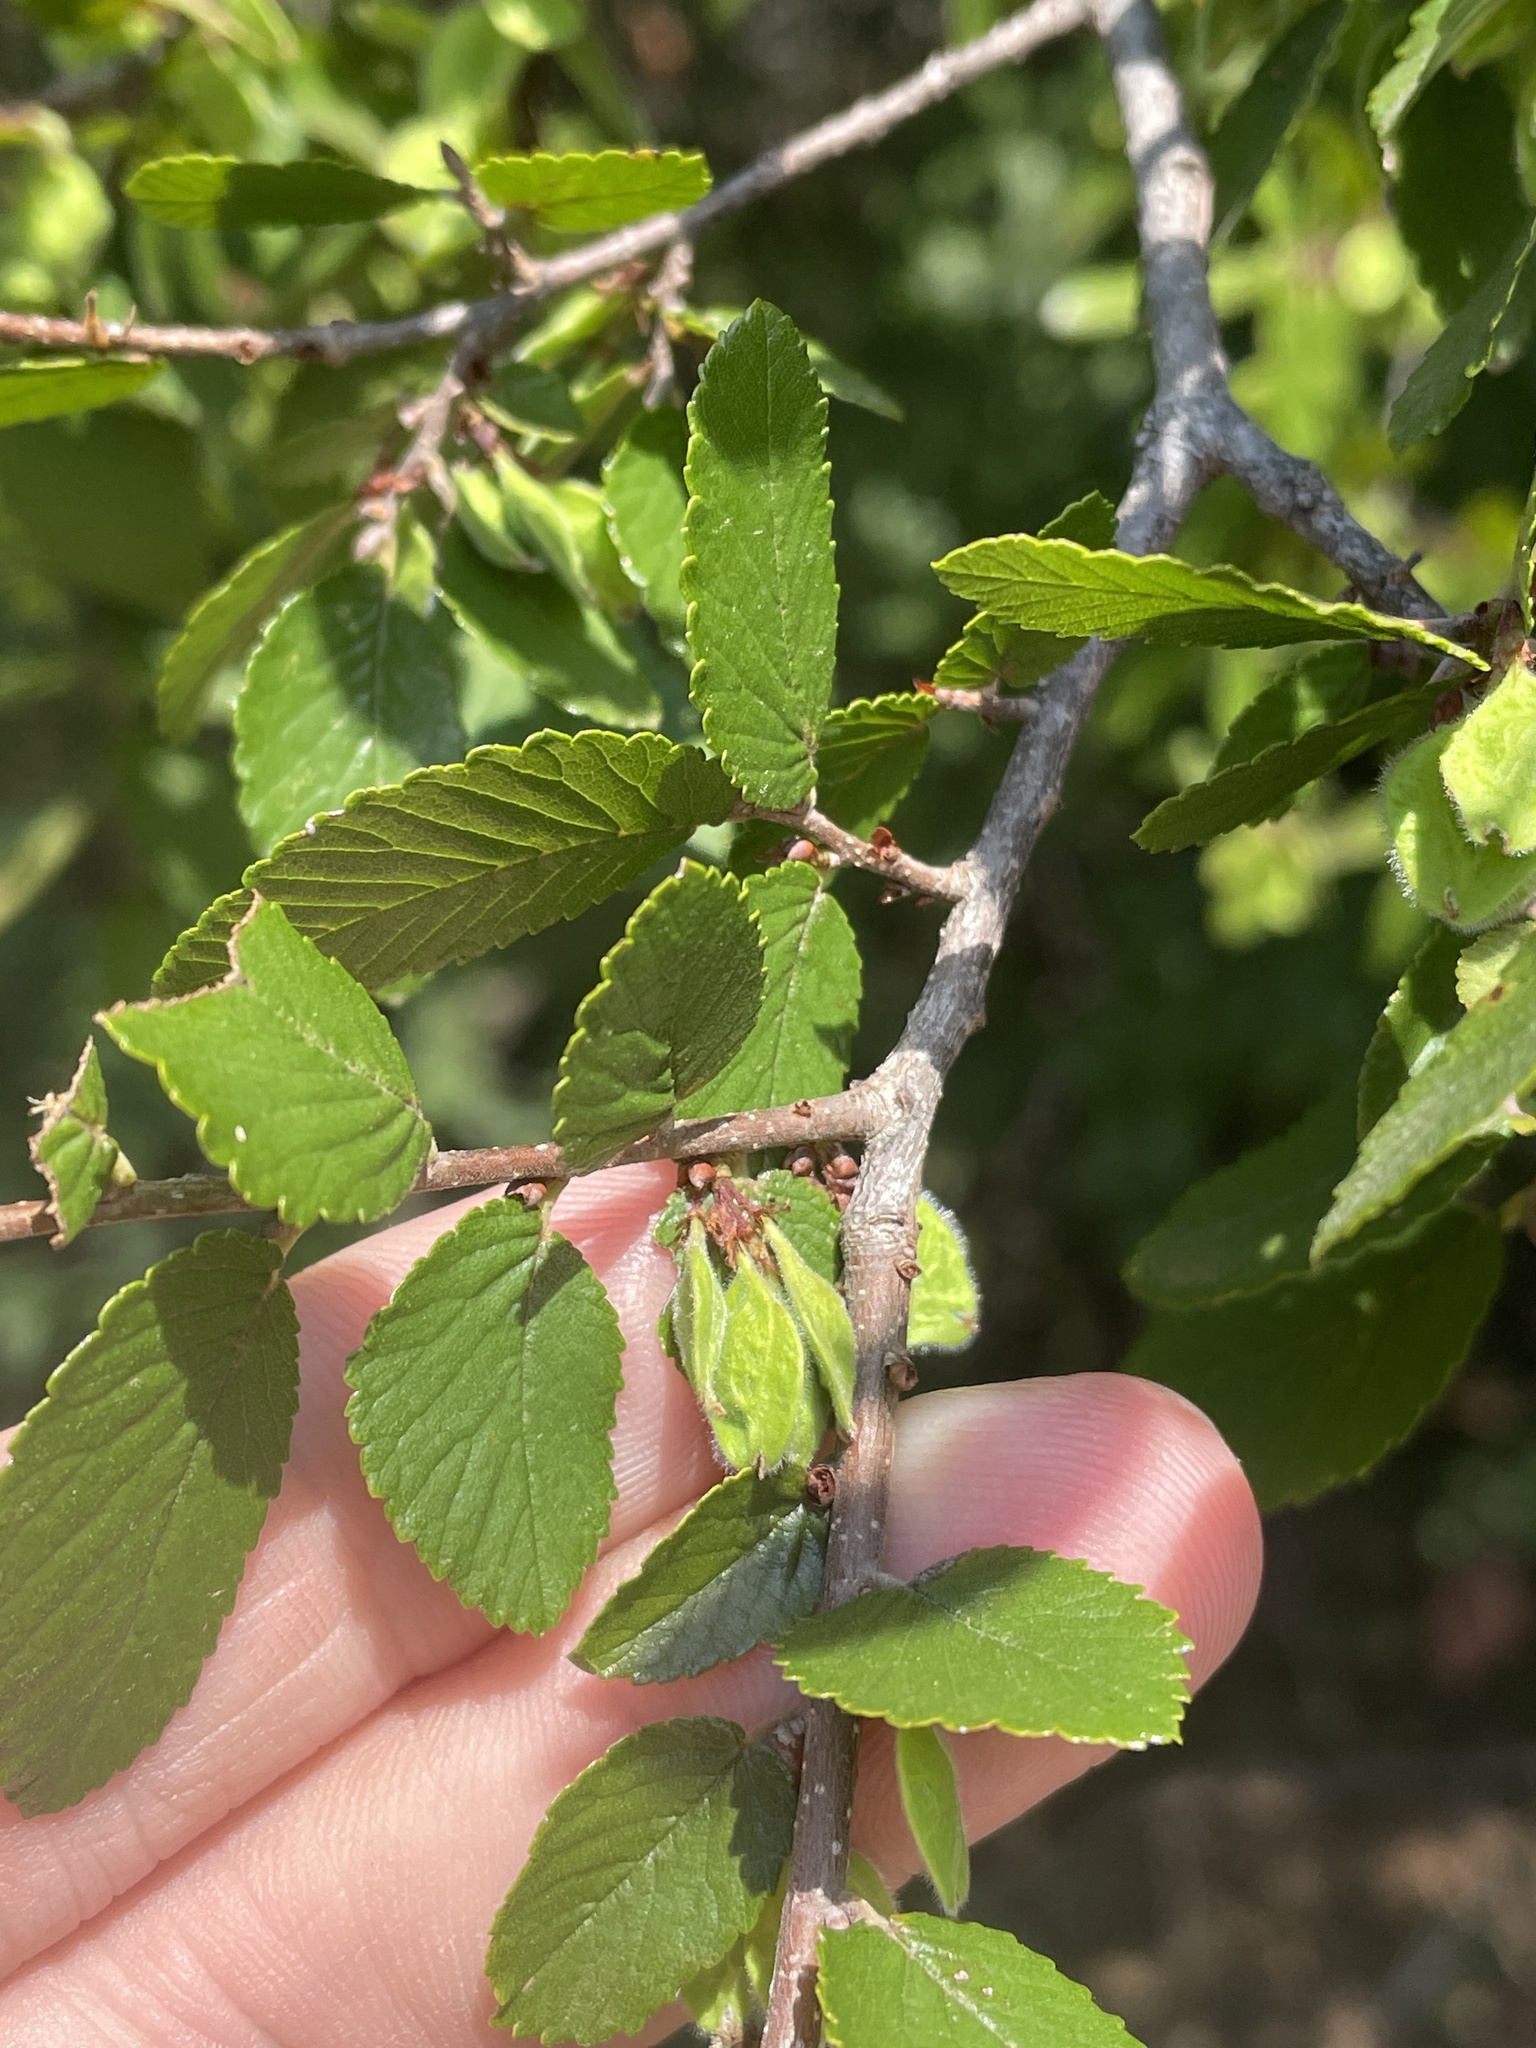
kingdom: Plantae
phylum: Tracheophyta
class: Magnoliopsida
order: Rosales
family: Ulmaceae
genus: Ulmus
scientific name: Ulmus crassifolia
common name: Basket elm
